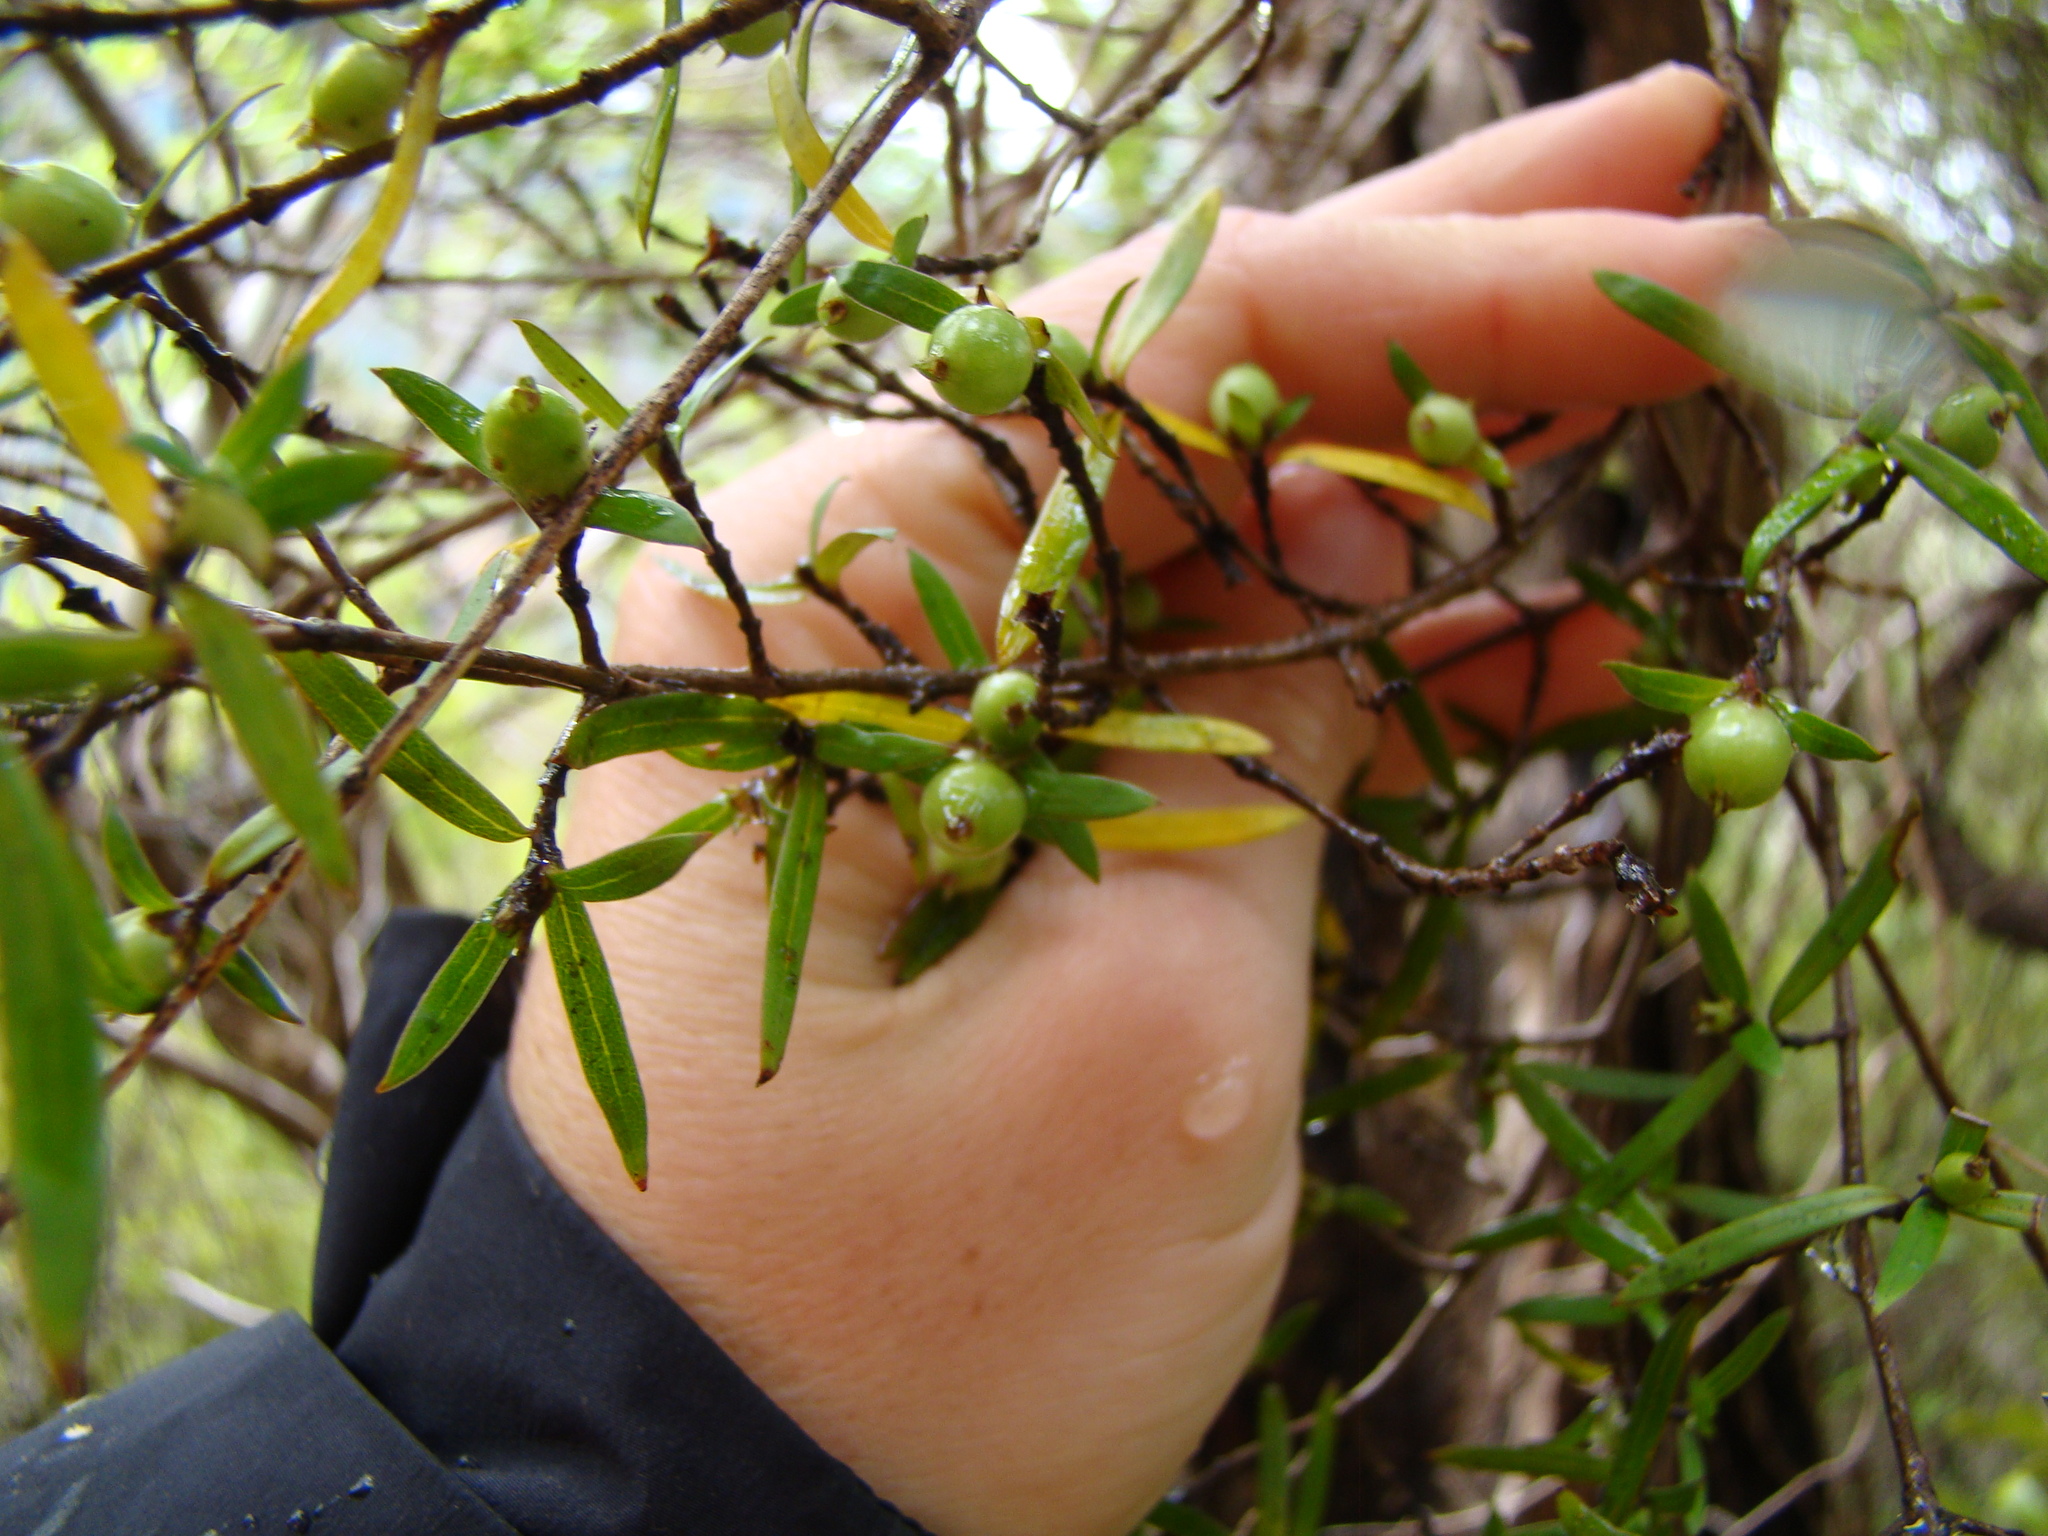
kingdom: Plantae
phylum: Tracheophyta
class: Magnoliopsida
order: Gentianales
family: Rubiaceae
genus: Coprosma
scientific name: Coprosma linariifolia
